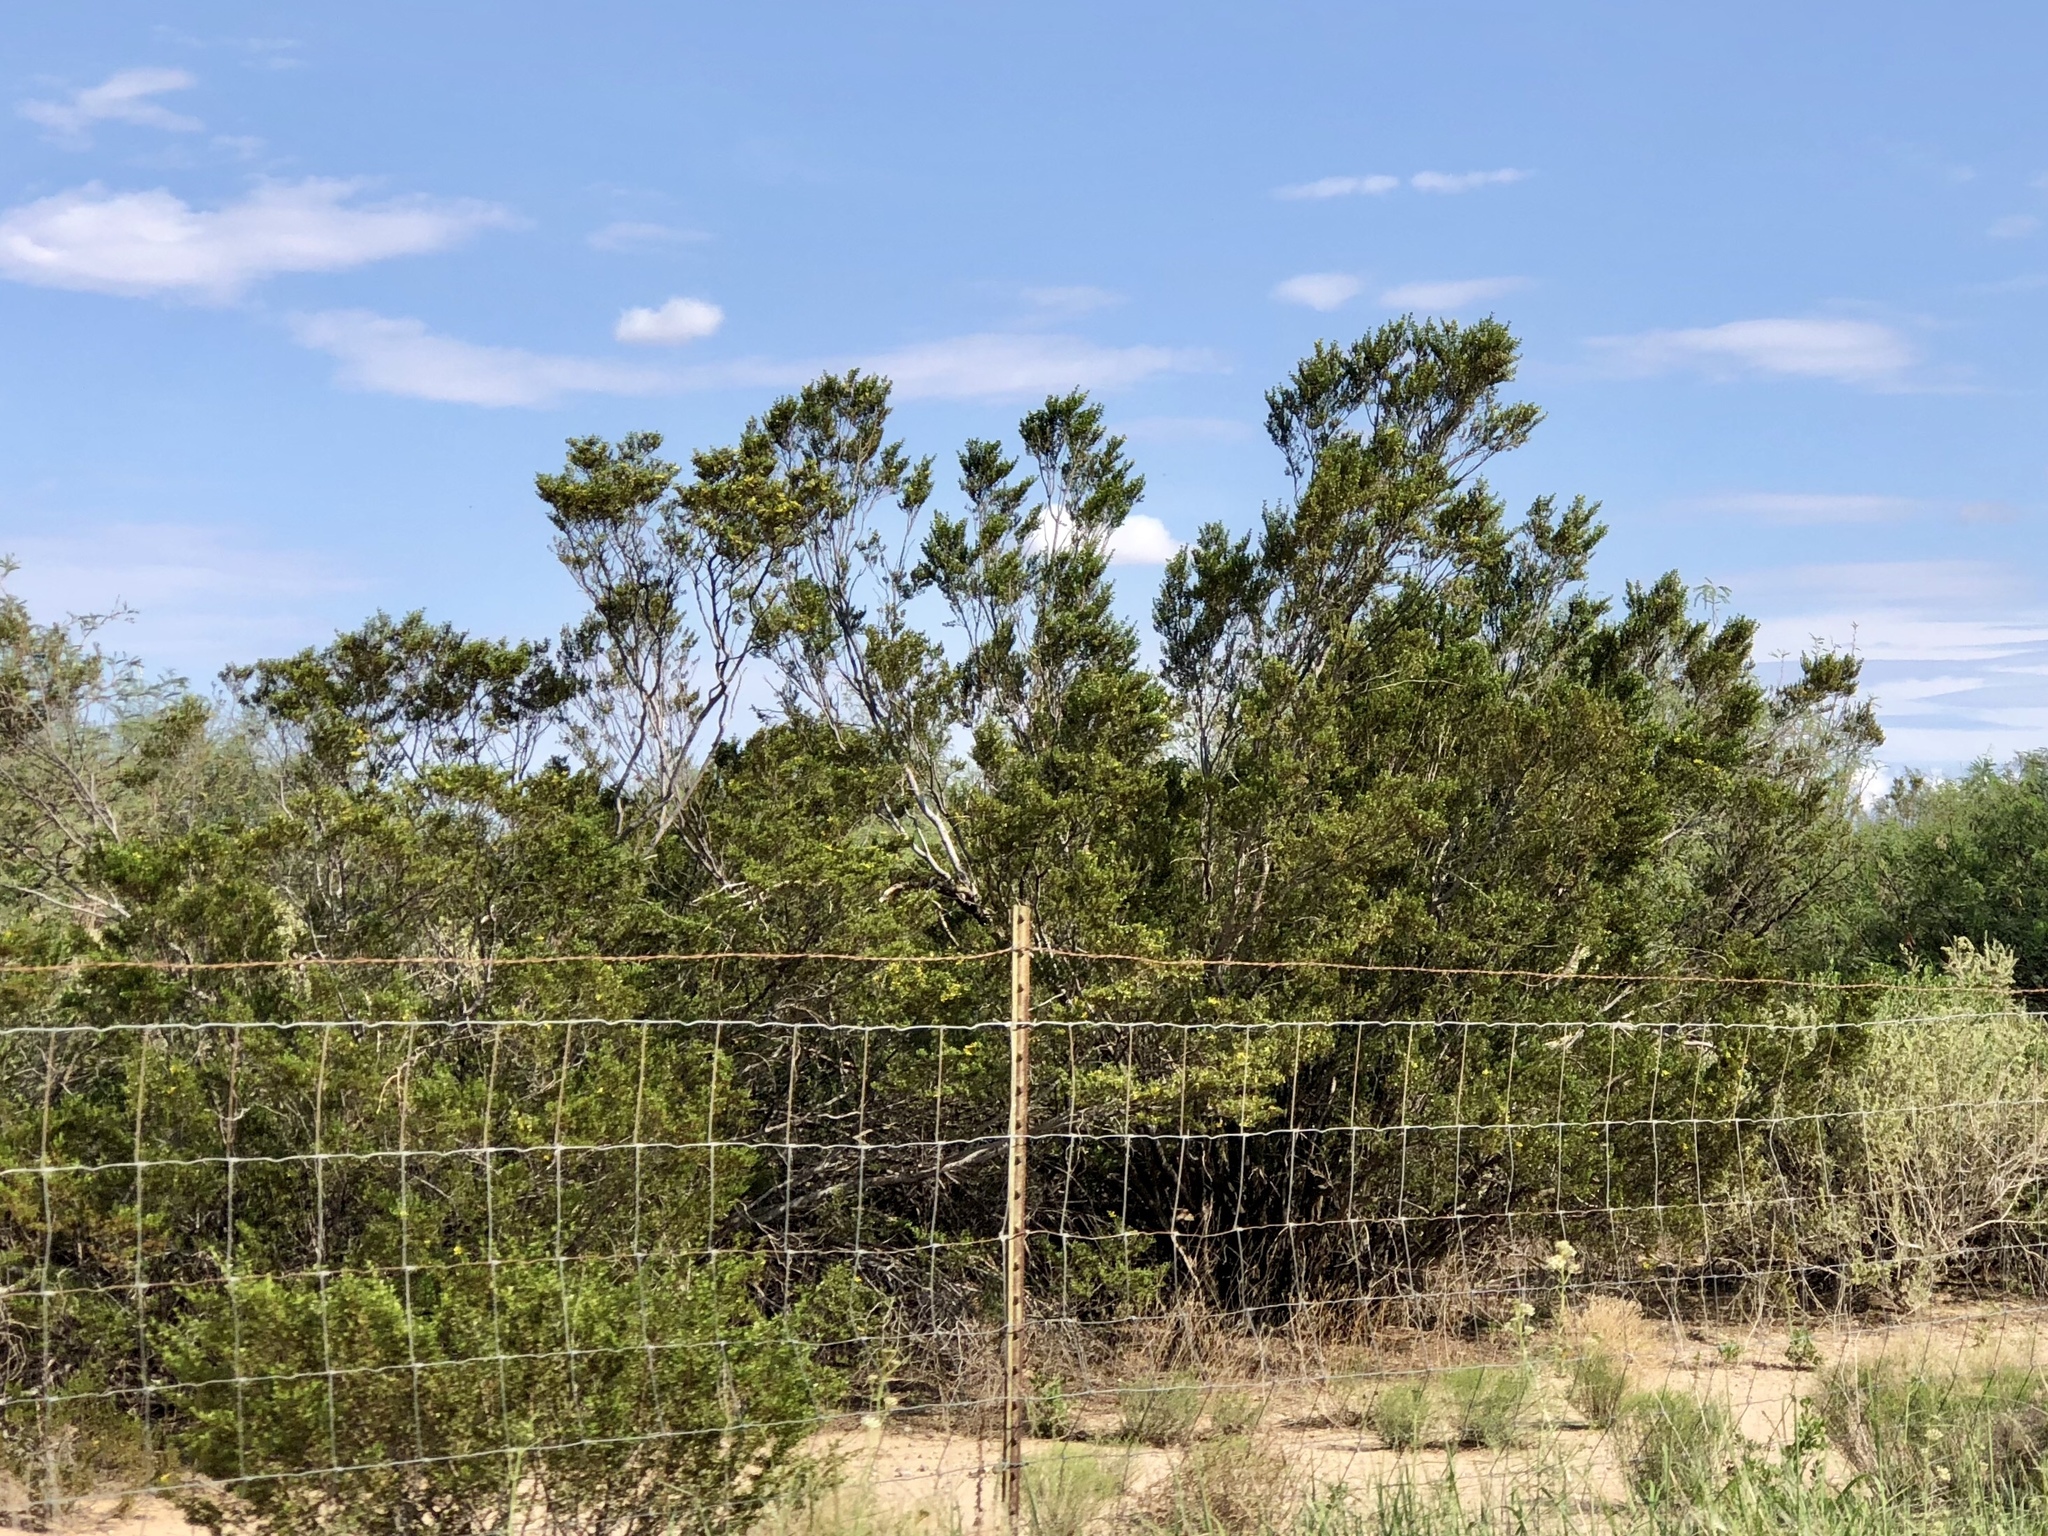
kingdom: Plantae
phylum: Tracheophyta
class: Magnoliopsida
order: Zygophyllales
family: Zygophyllaceae
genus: Larrea
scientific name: Larrea tridentata
